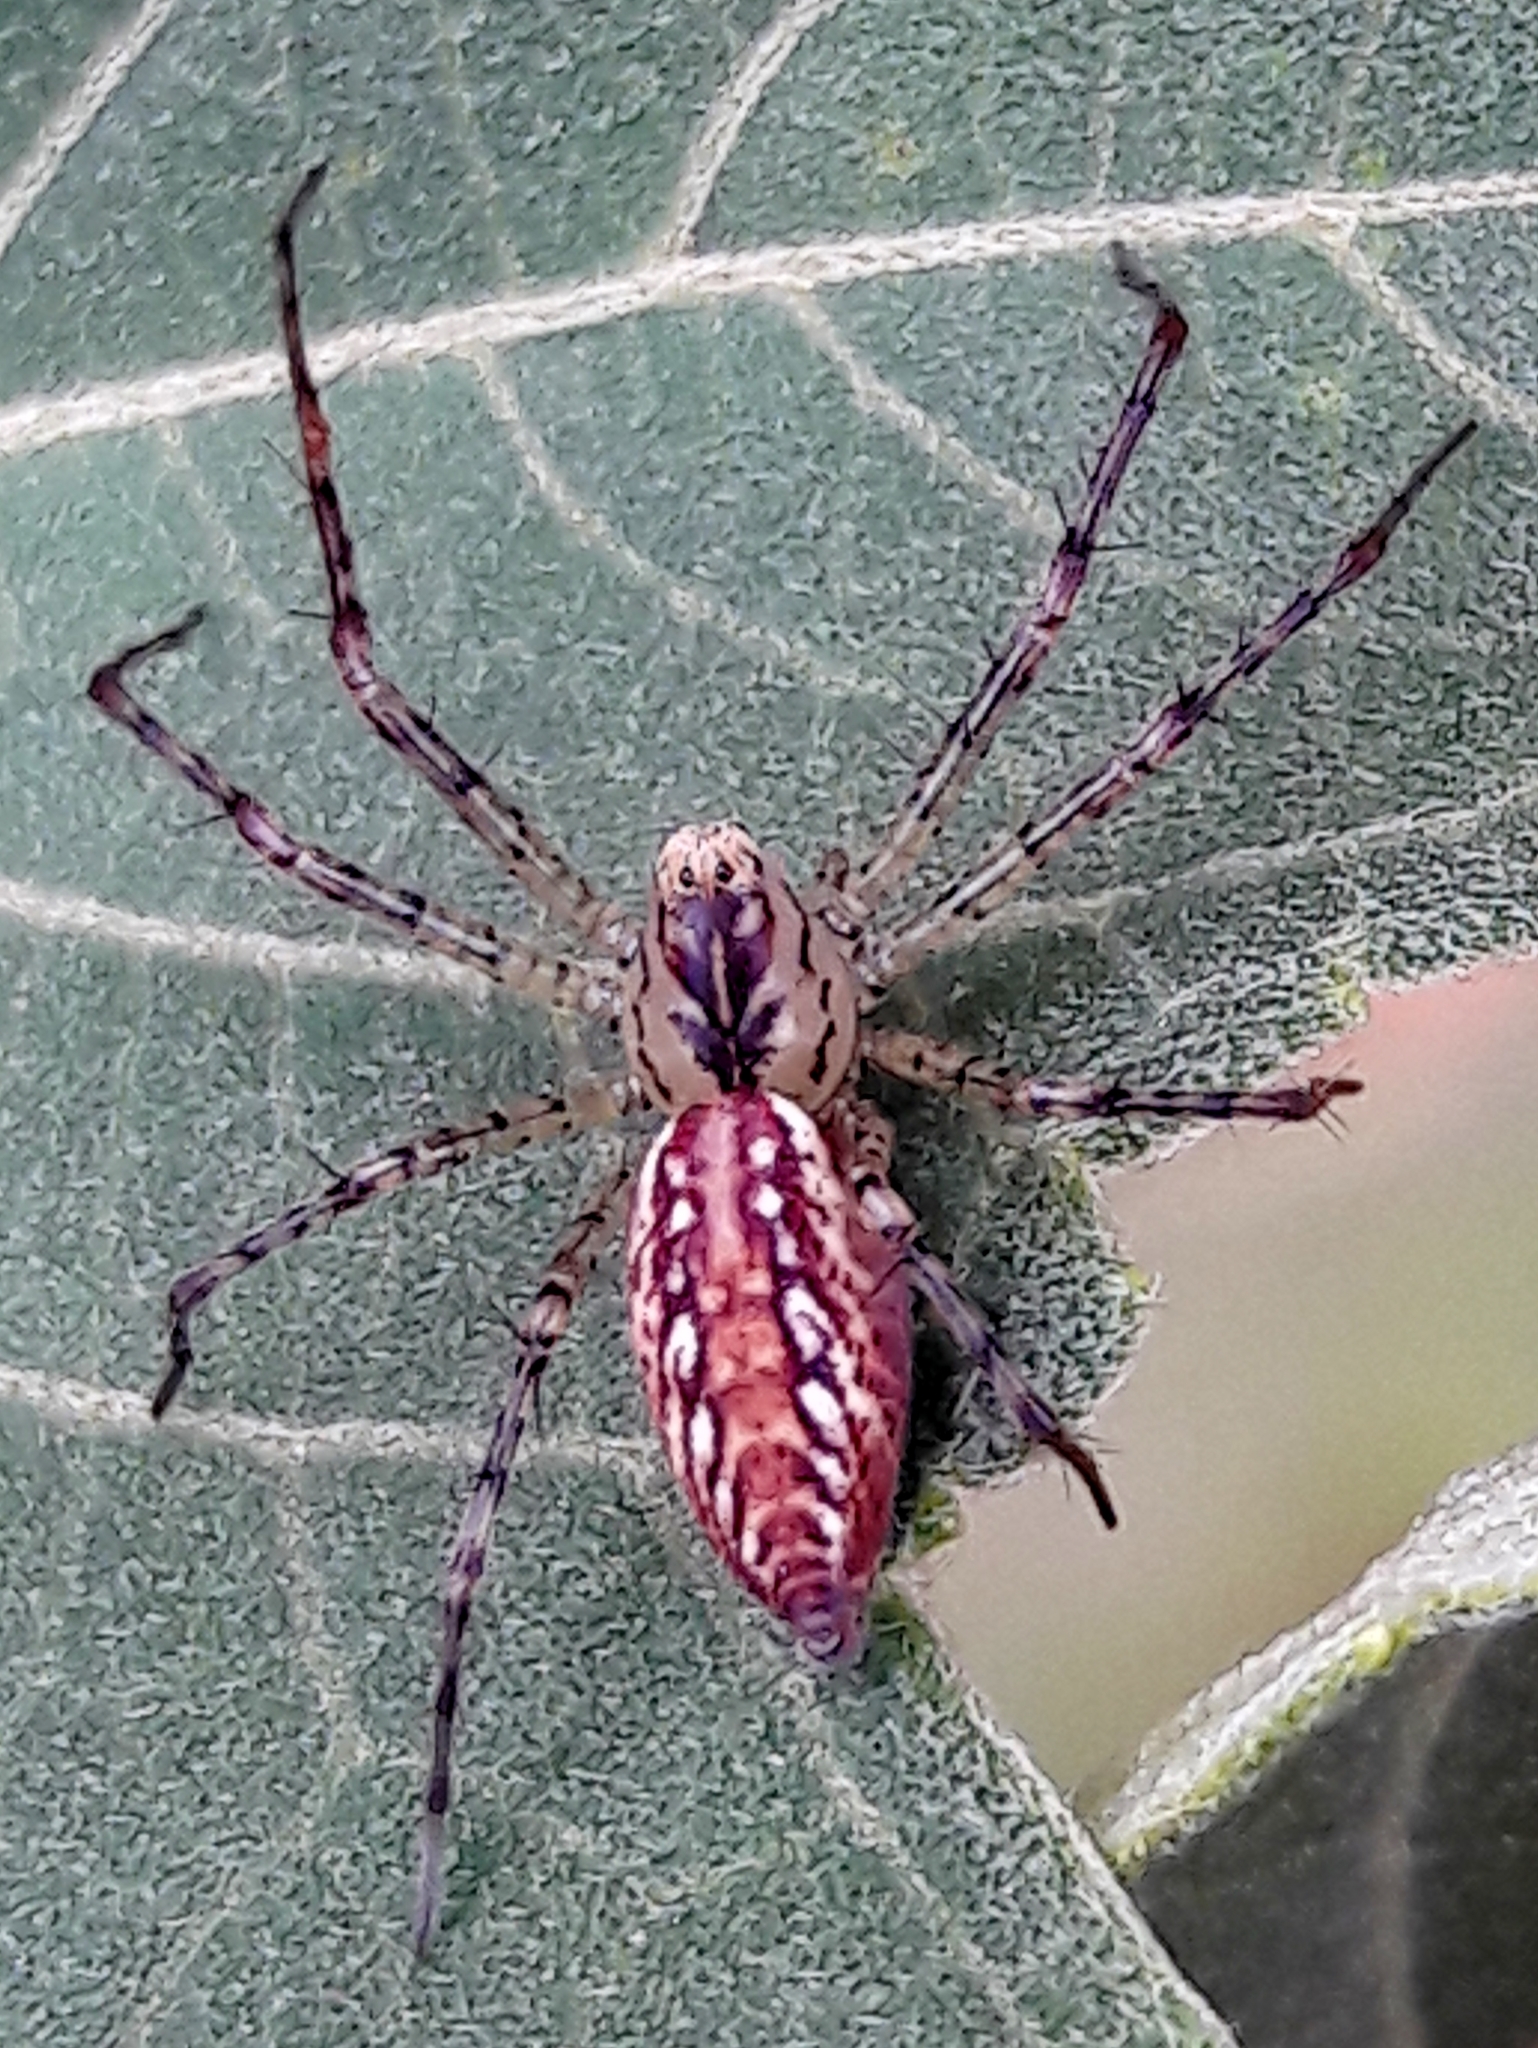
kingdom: Animalia
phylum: Arthropoda
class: Arachnida
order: Araneae
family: Oxyopidae
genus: Peucetia
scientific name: Peucetia flava
